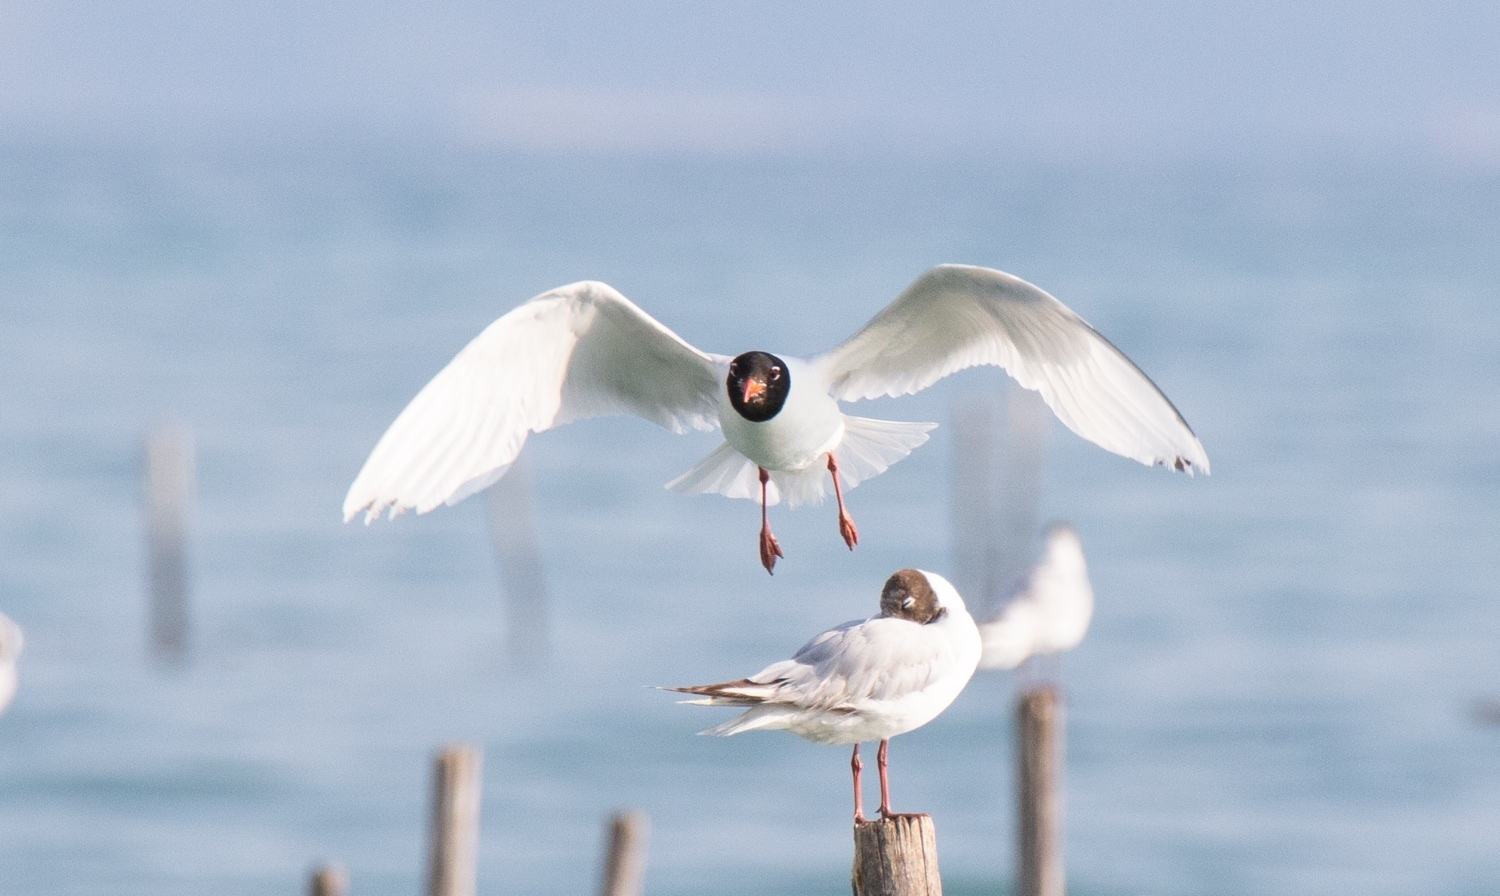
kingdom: Animalia
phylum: Chordata
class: Aves
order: Charadriiformes
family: Laridae
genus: Ichthyaetus
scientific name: Ichthyaetus melanocephalus
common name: Mediterranean gull
